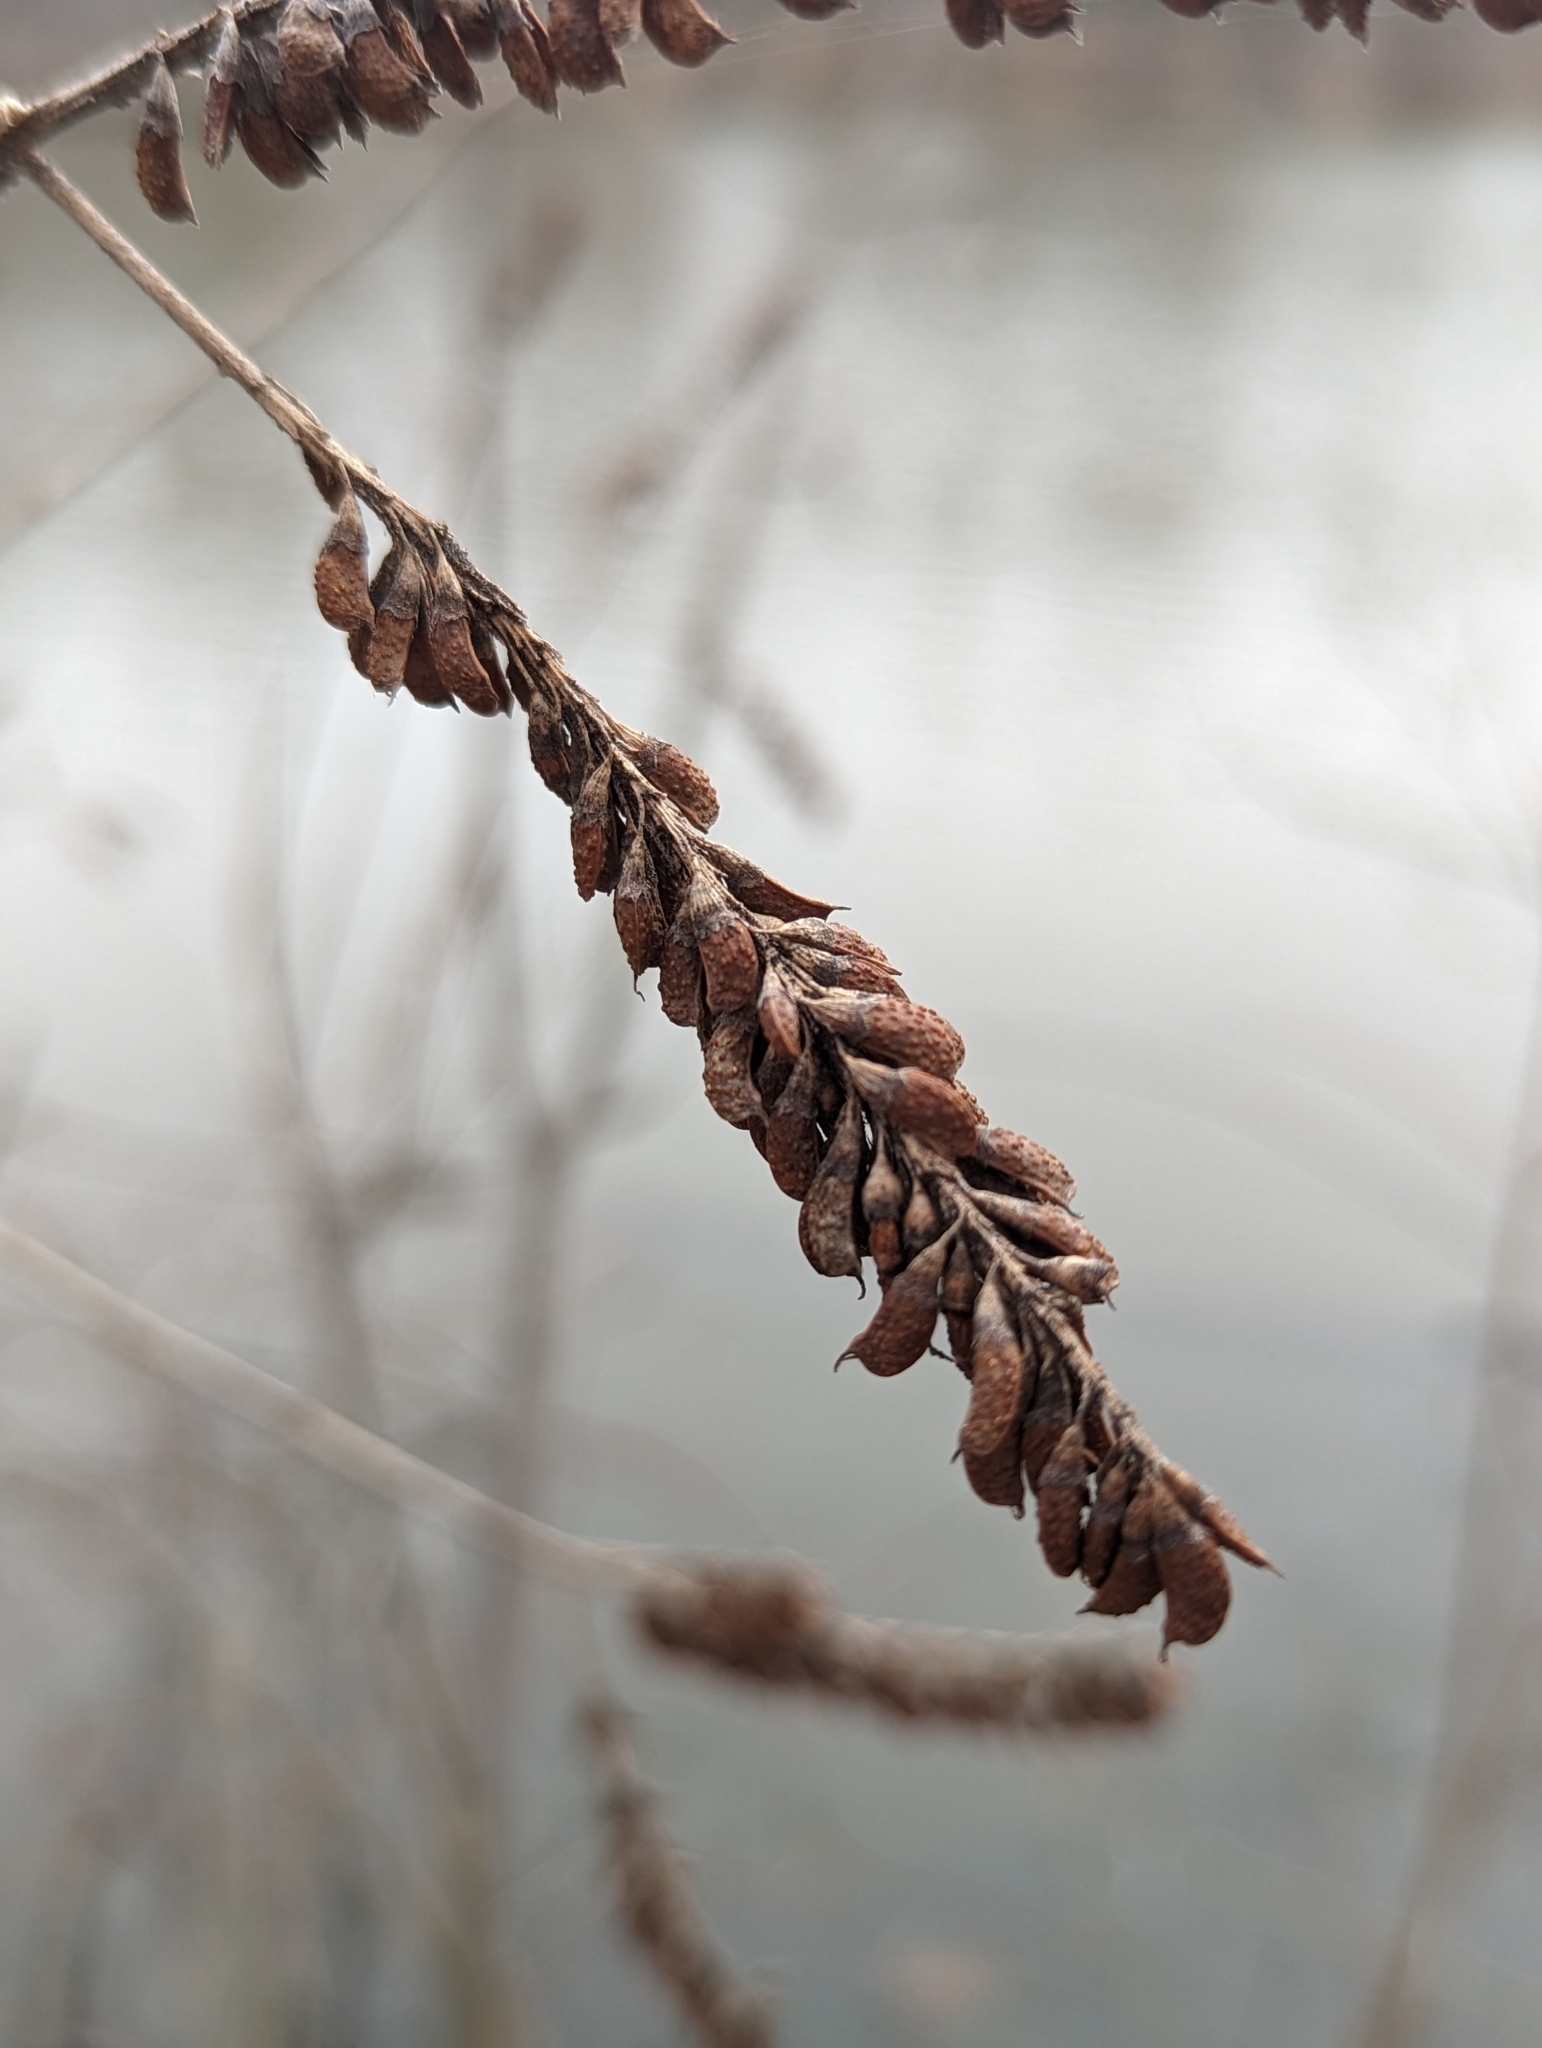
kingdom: Plantae
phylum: Tracheophyta
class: Magnoliopsida
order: Fabales
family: Fabaceae
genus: Amorpha
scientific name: Amorpha fruticosa
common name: False indigo
